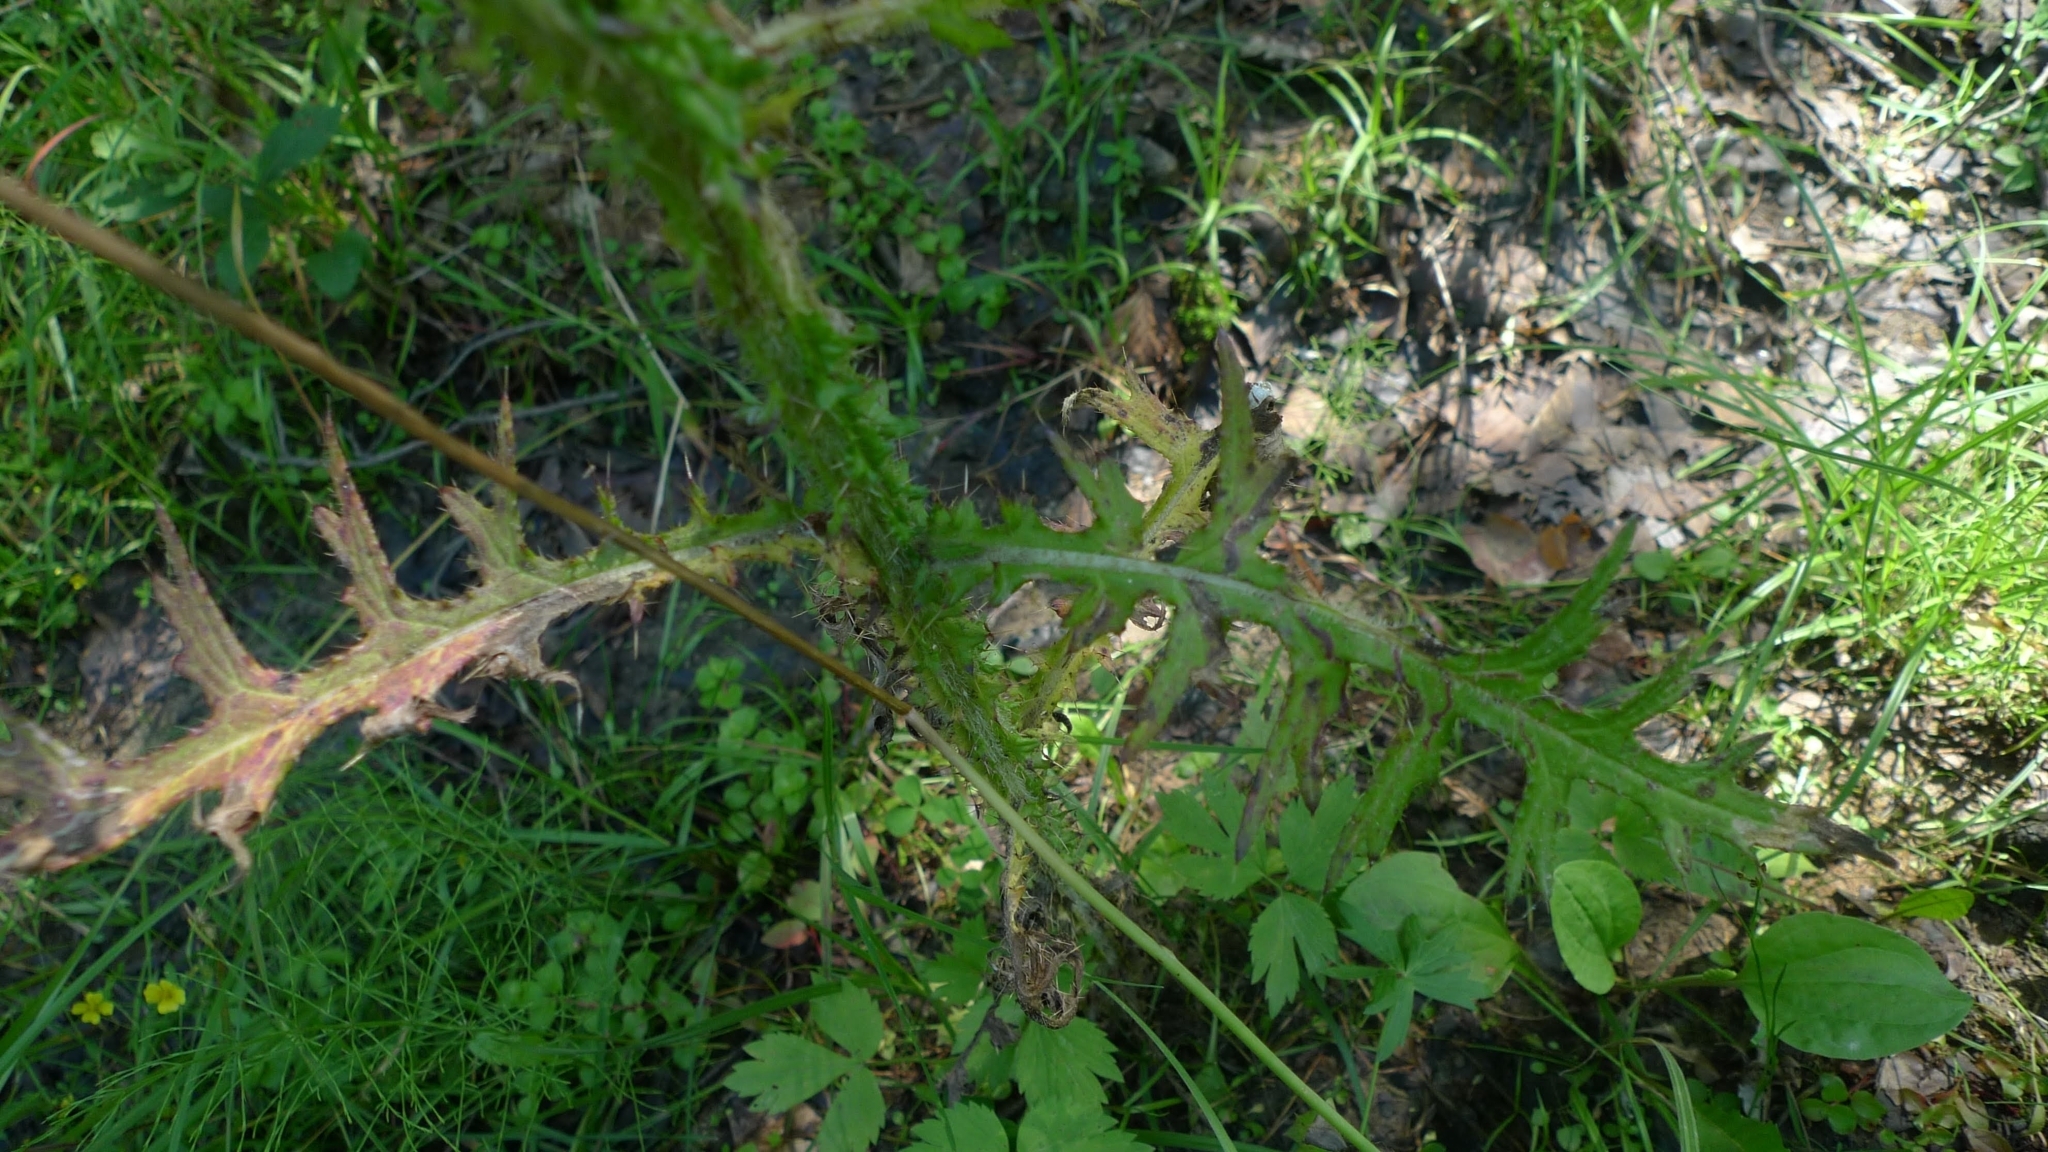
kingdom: Plantae
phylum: Tracheophyta
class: Magnoliopsida
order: Asterales
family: Asteraceae
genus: Cirsium
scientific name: Cirsium palustre
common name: Marsh thistle
